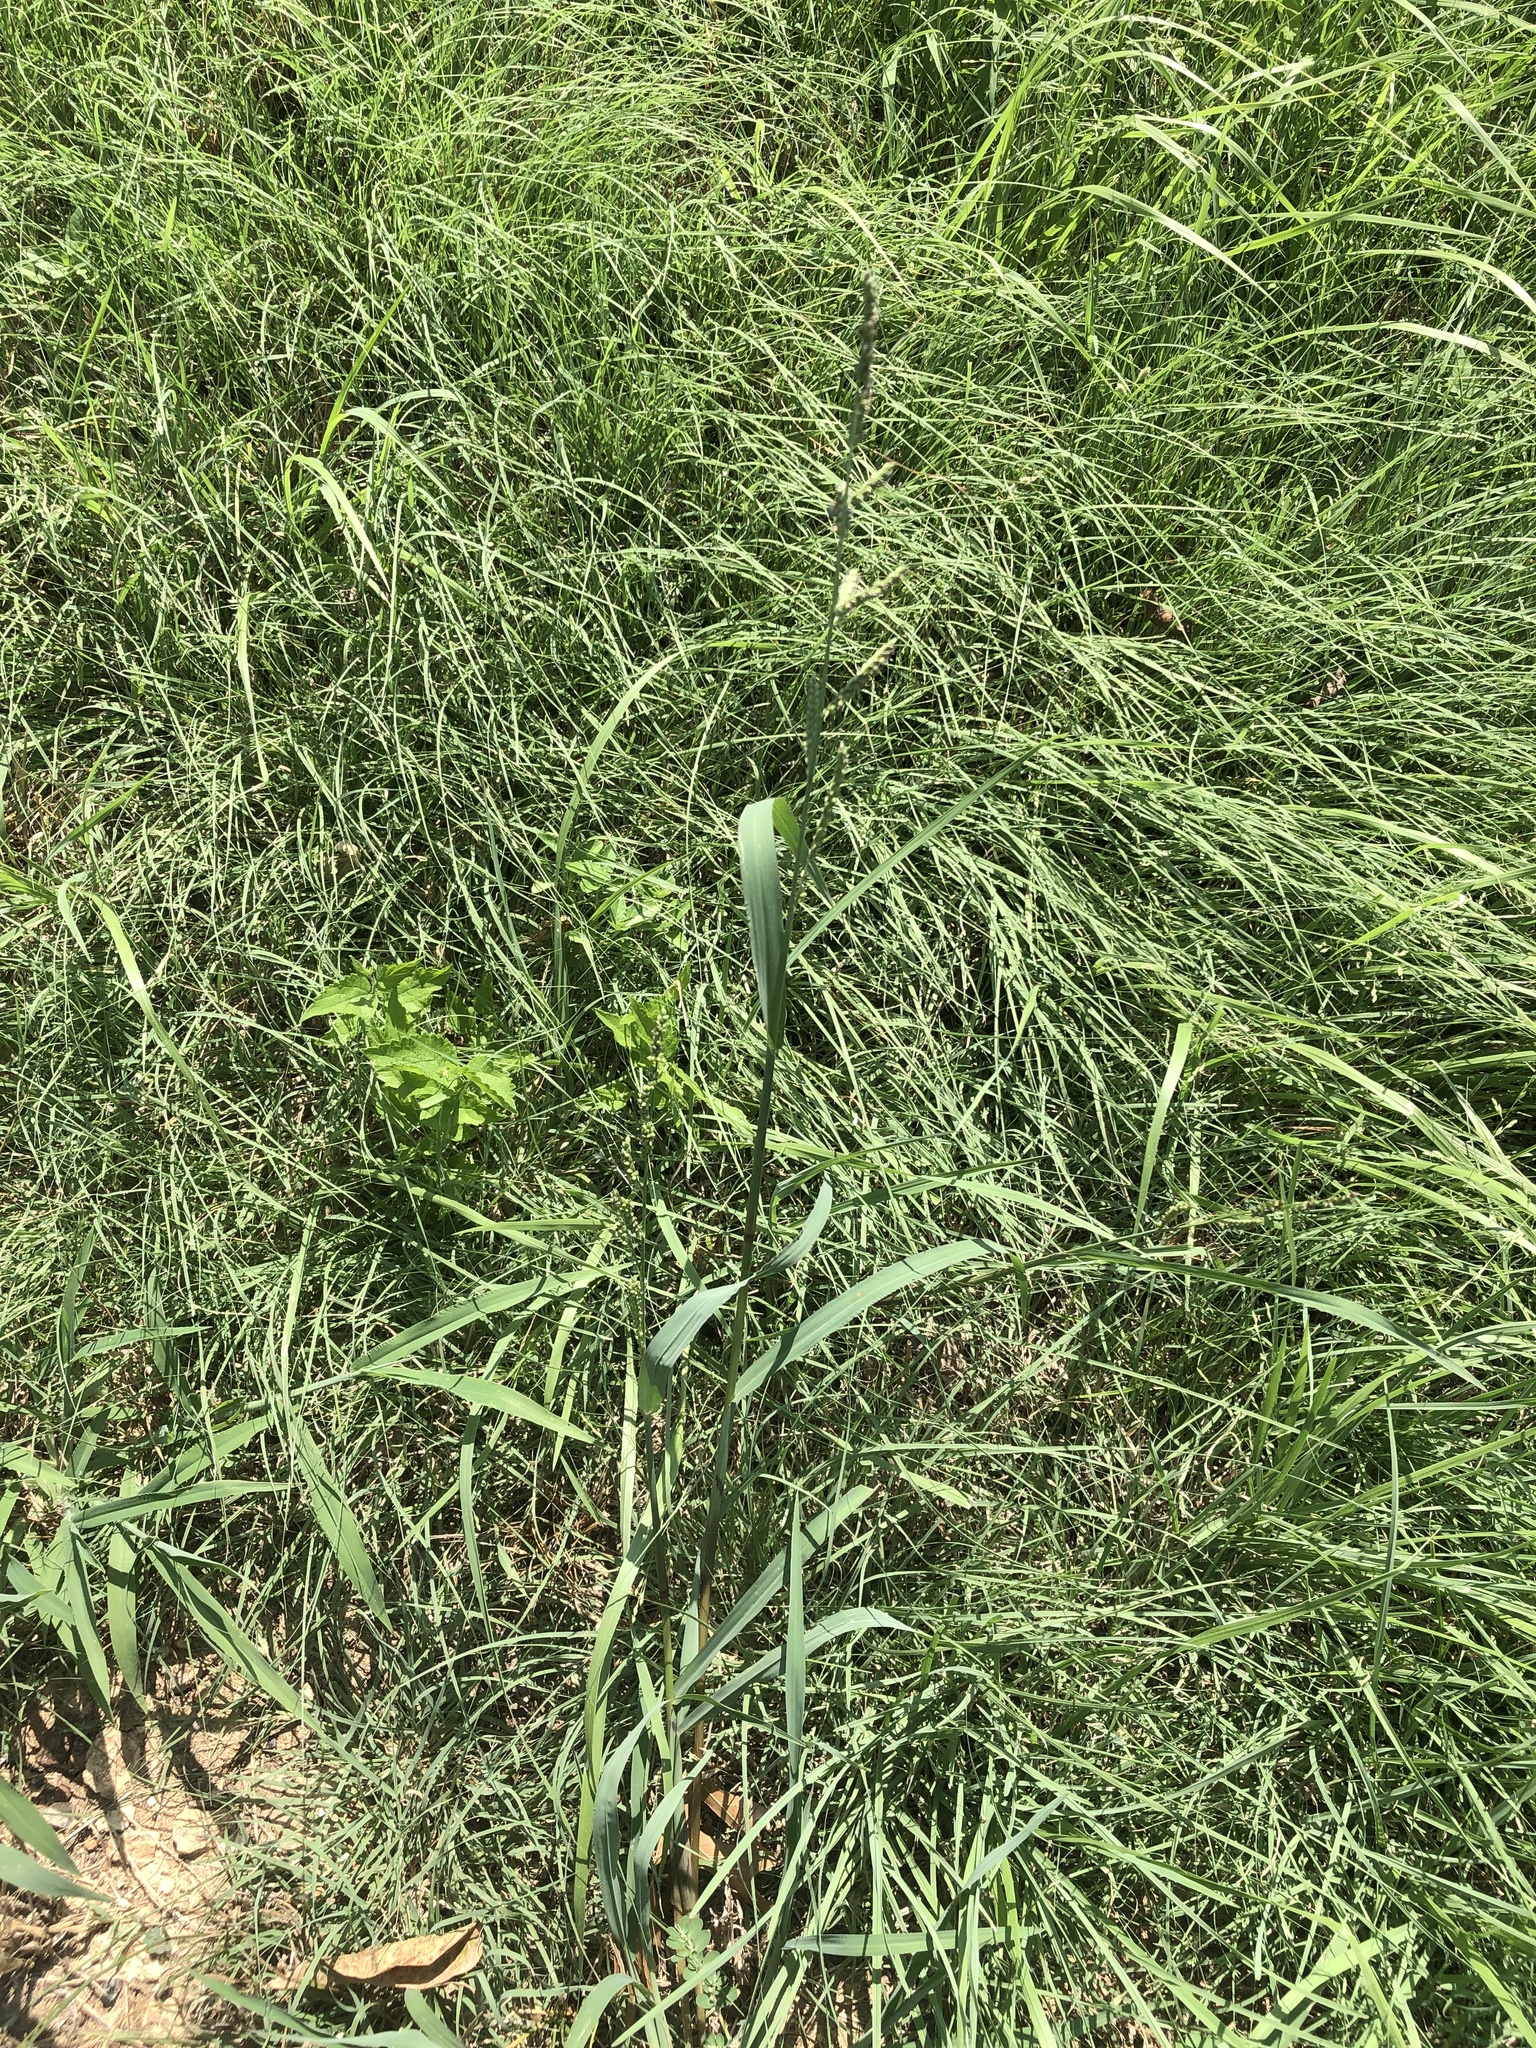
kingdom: Plantae
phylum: Tracheophyta
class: Liliopsida
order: Poales
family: Poaceae
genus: Echinochloa
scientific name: Echinochloa colonum
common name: Jungle rice
